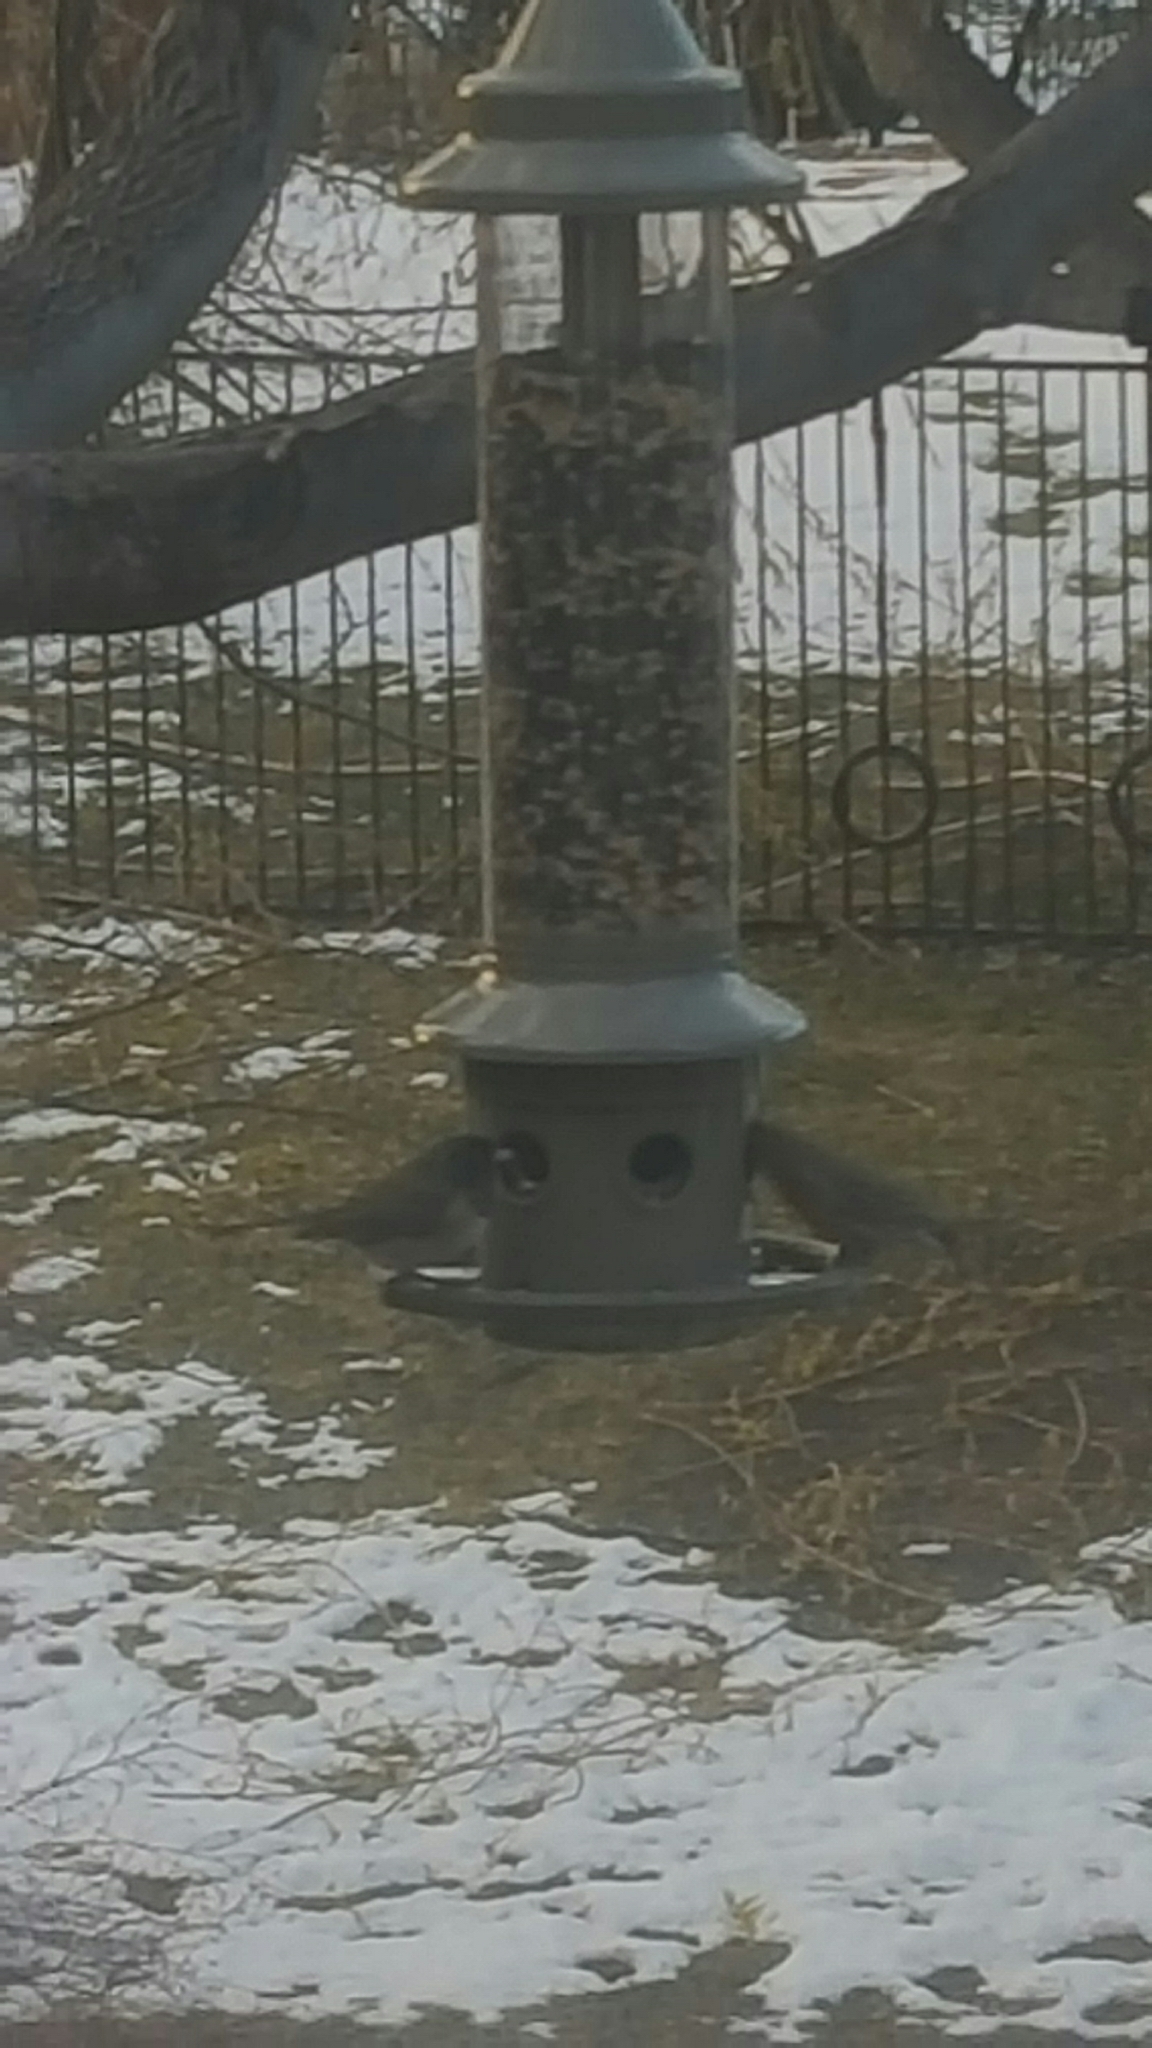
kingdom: Animalia
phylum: Chordata
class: Aves
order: Passeriformes
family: Passerellidae
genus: Junco
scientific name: Junco hyemalis
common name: Dark-eyed junco
